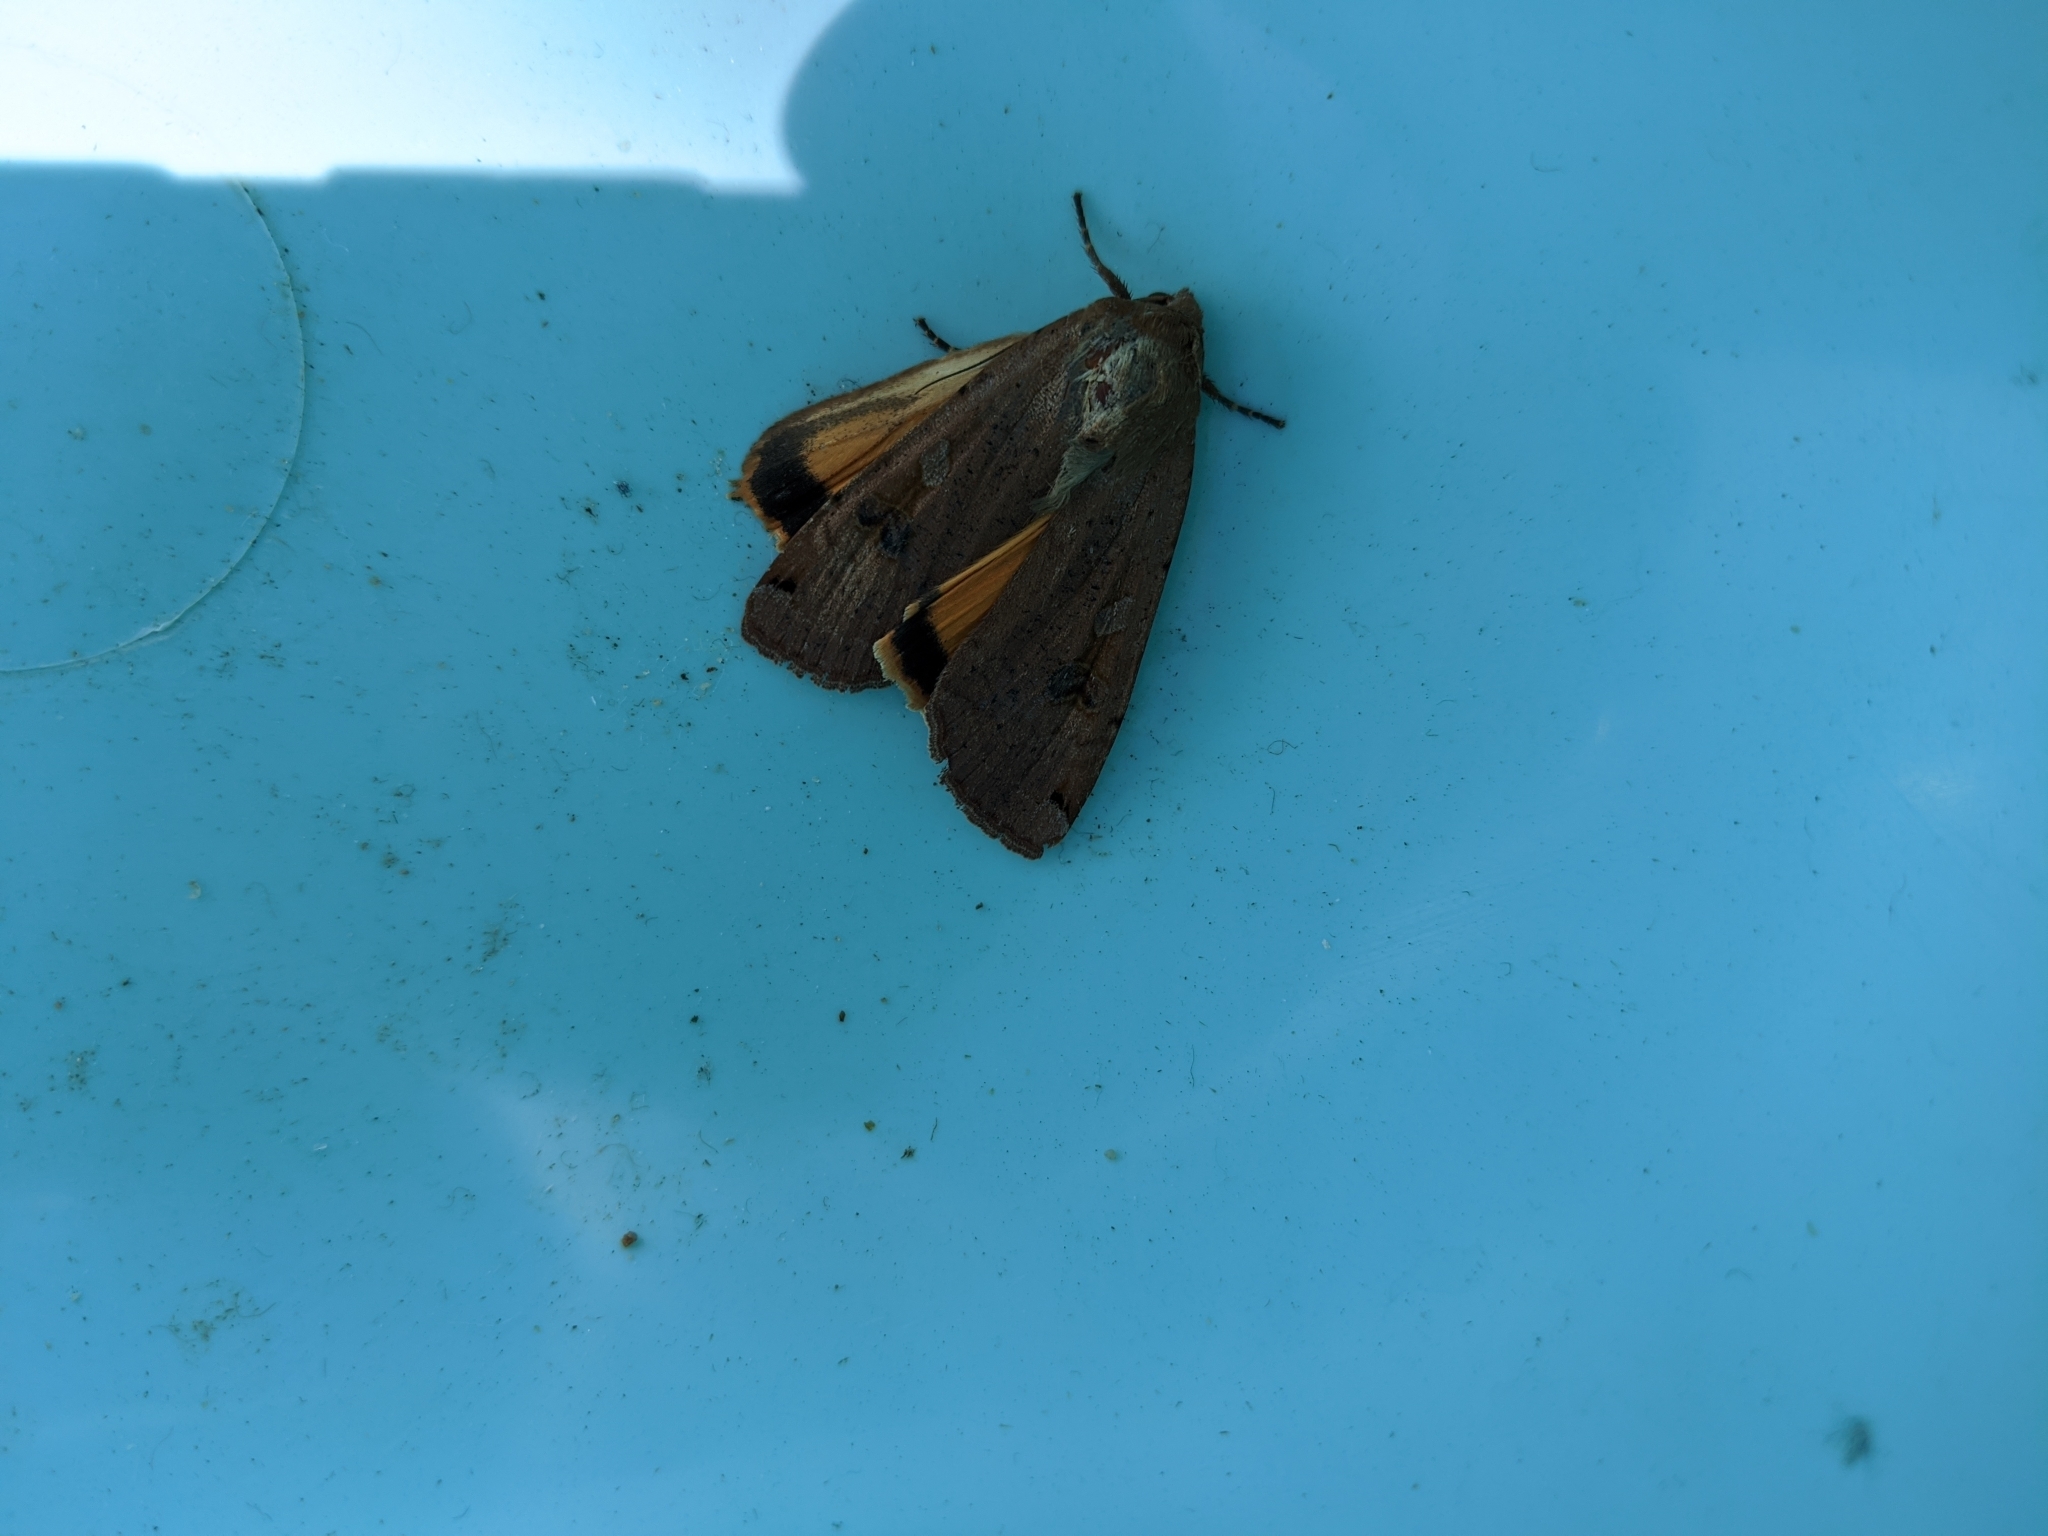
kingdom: Animalia
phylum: Arthropoda
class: Insecta
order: Lepidoptera
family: Noctuidae
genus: Noctua
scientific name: Noctua pronuba
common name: Large yellow underwing
